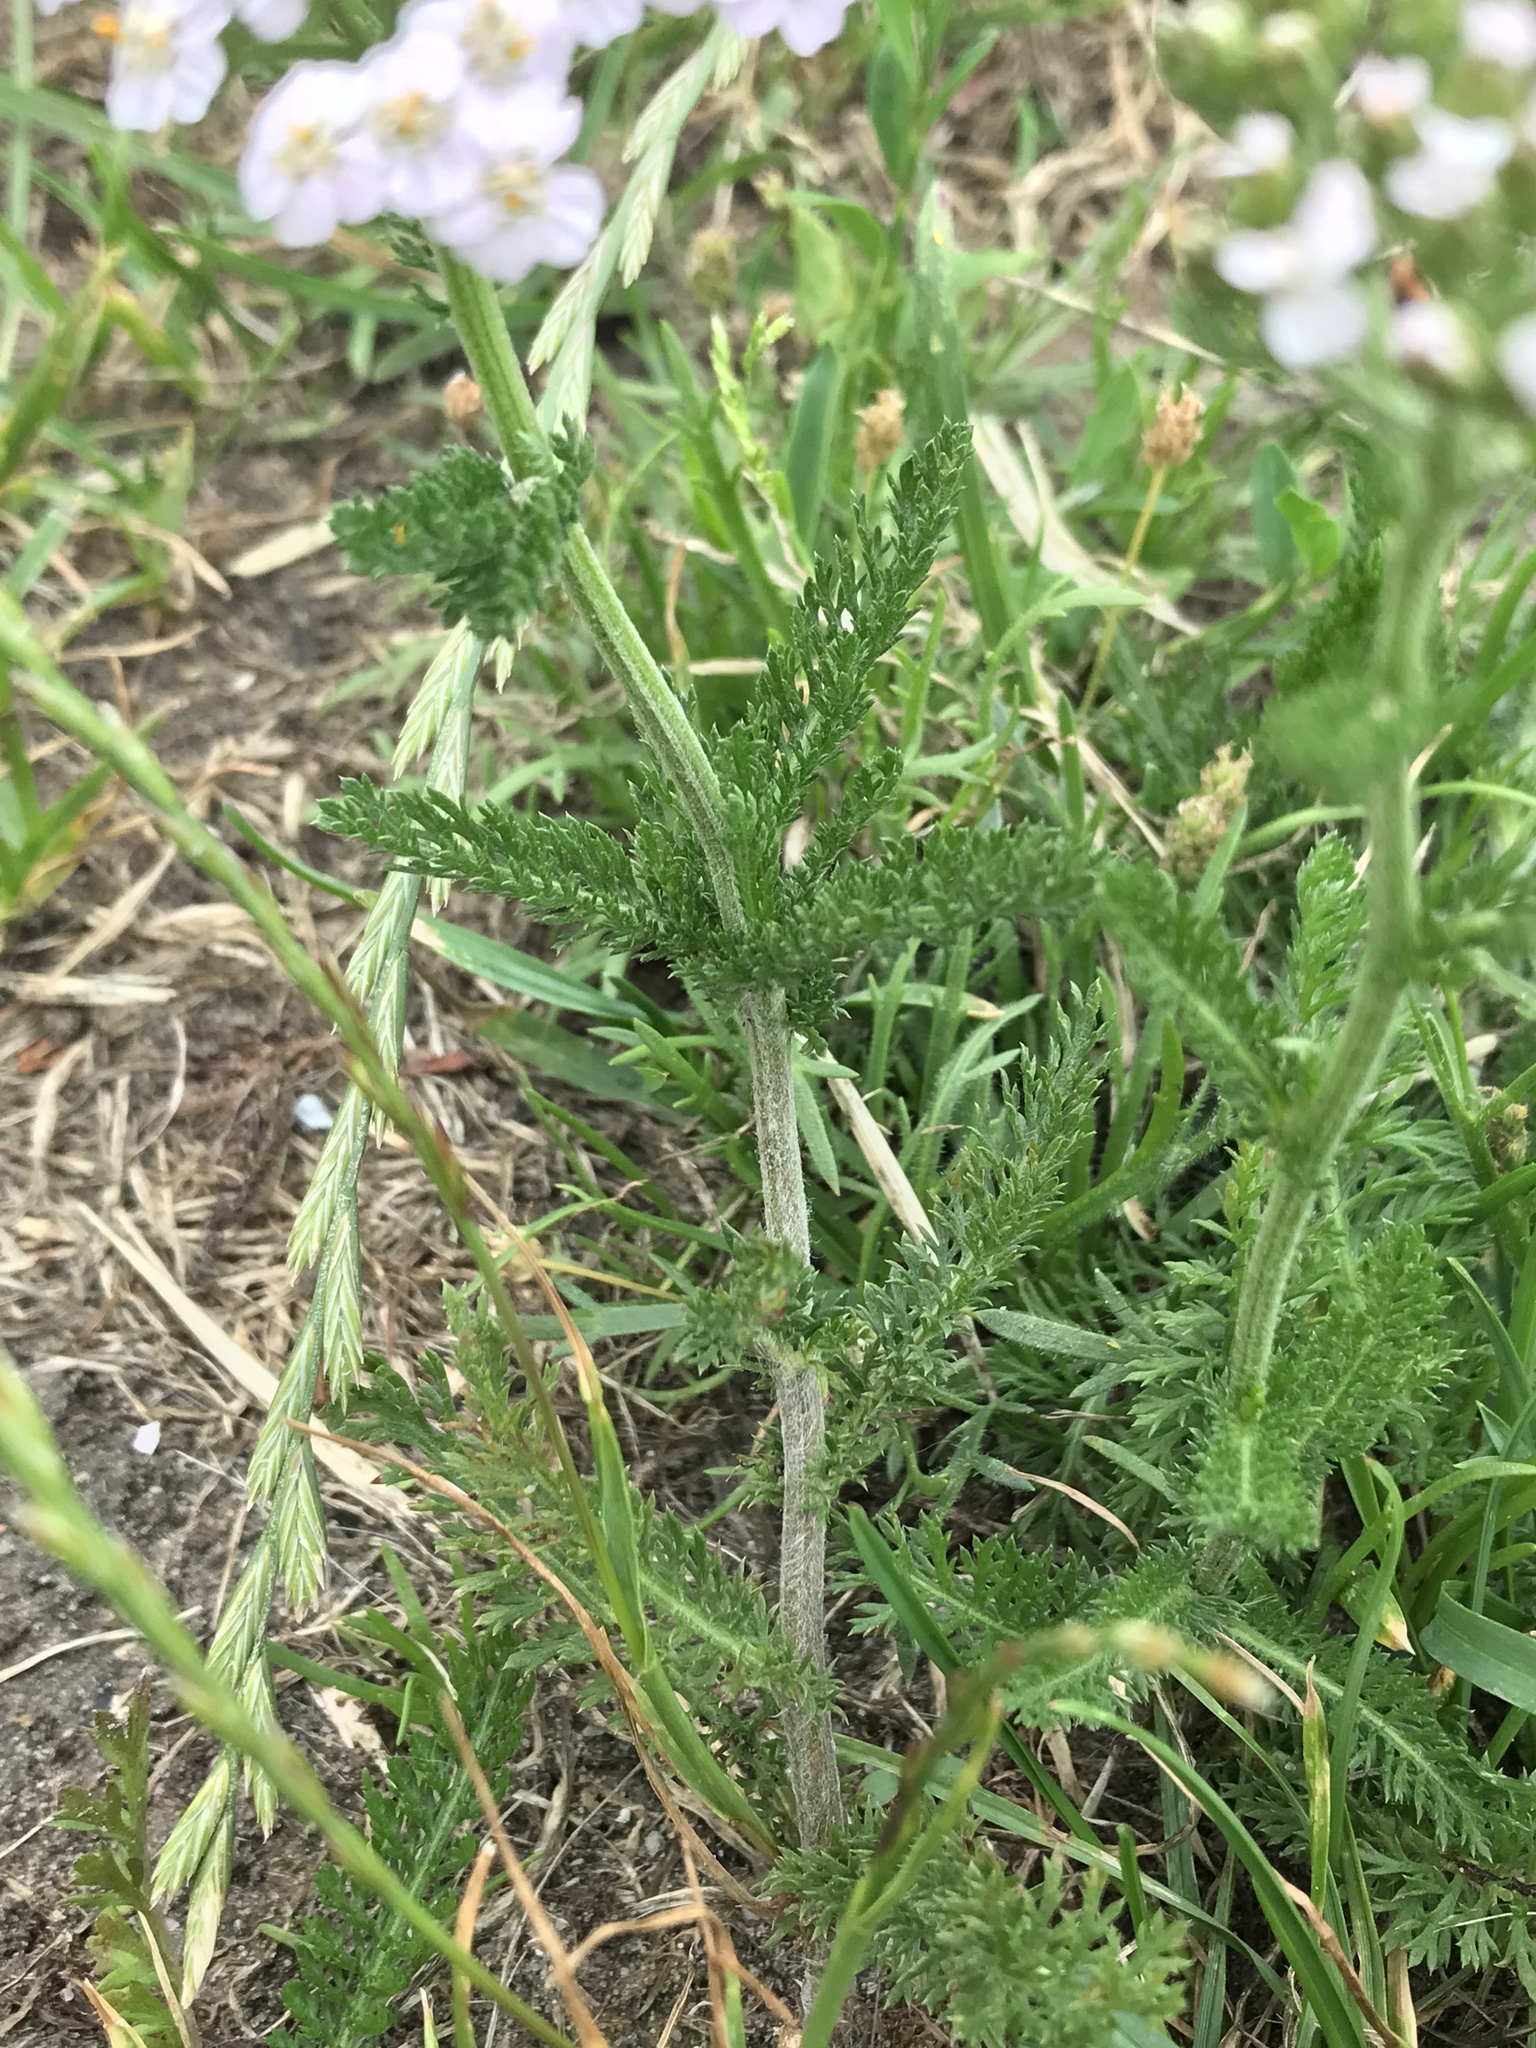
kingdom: Plantae
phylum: Tracheophyta
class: Magnoliopsida
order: Asterales
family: Asteraceae
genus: Achillea
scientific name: Achillea millefolium
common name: Yarrow
